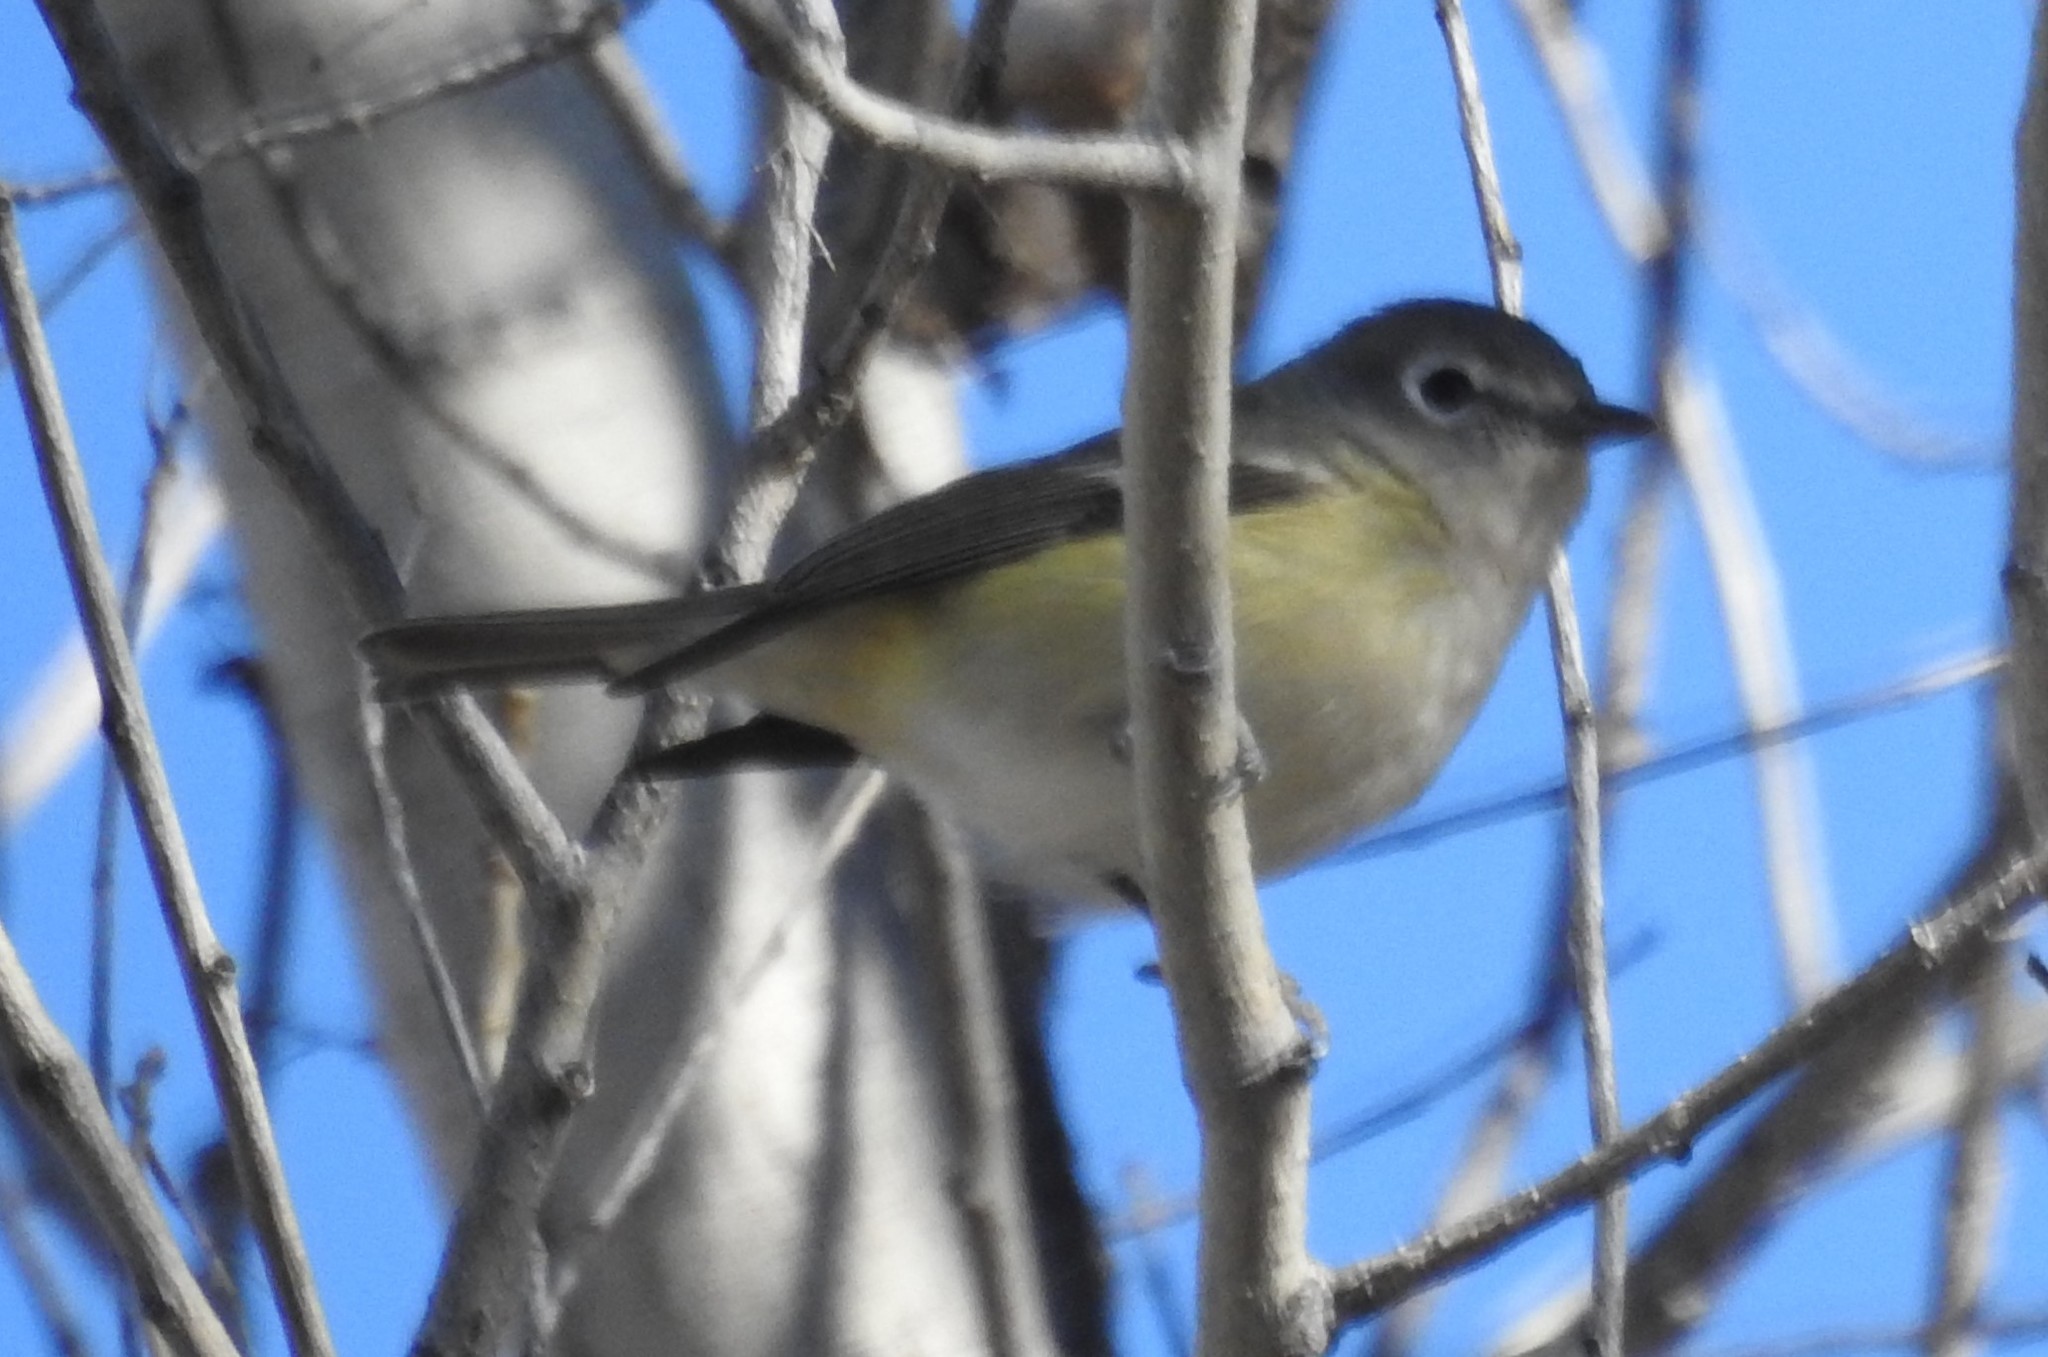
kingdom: Animalia
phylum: Chordata
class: Aves
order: Passeriformes
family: Vireonidae
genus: Vireo
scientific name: Vireo cassinii
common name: Cassin's vireo
